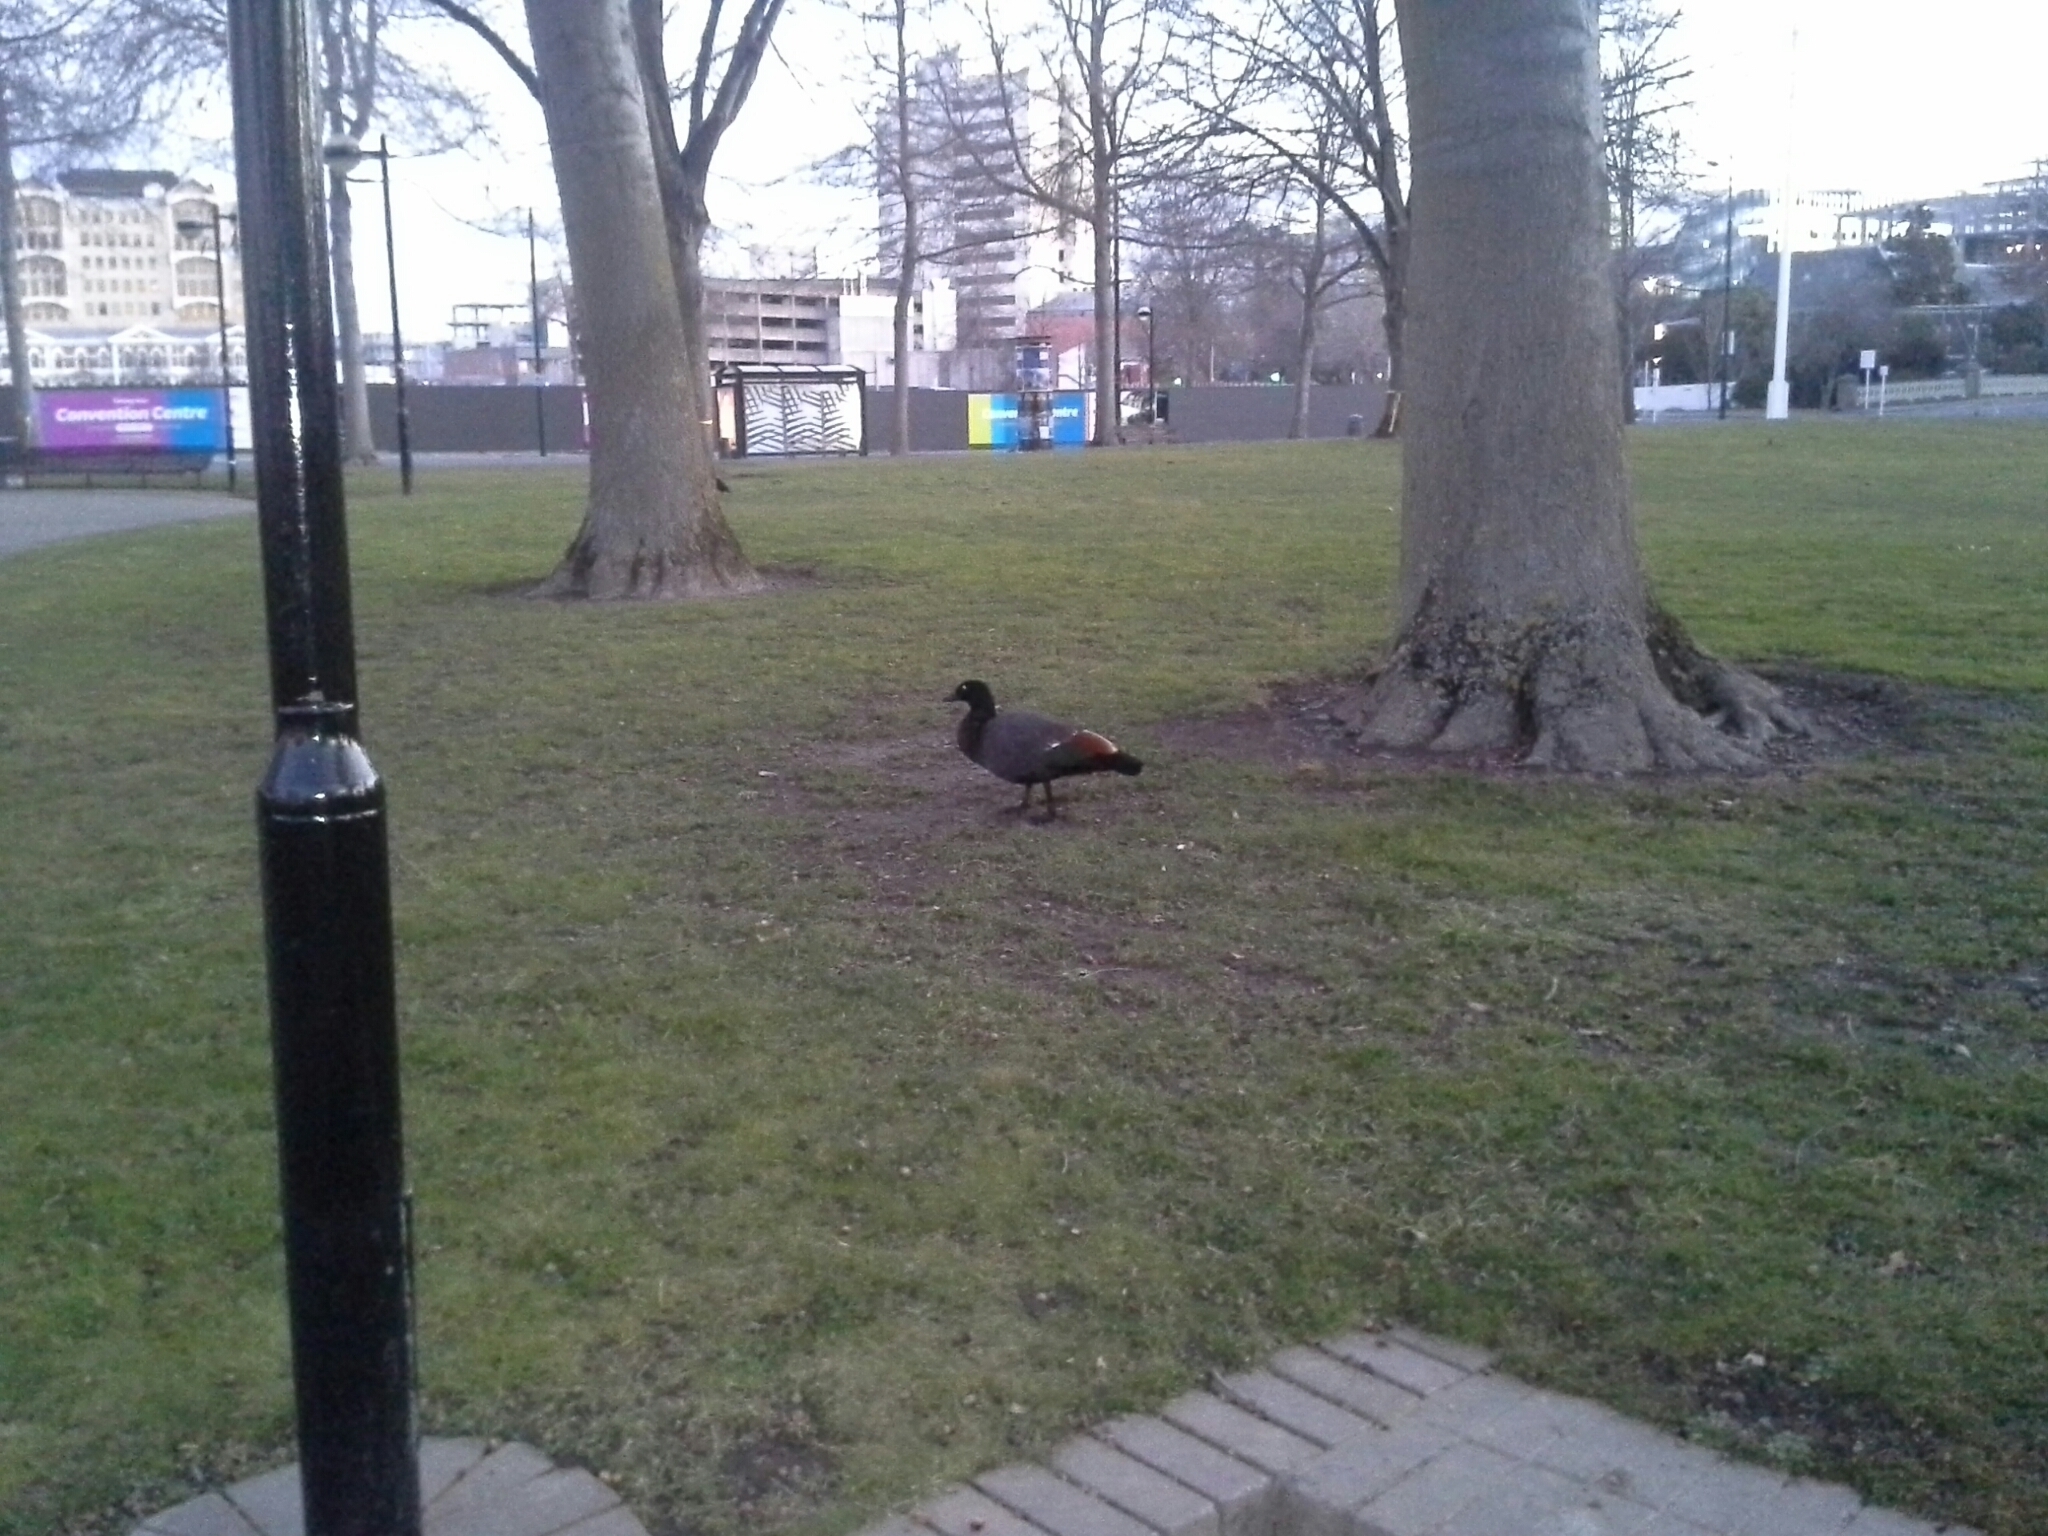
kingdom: Animalia
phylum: Chordata
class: Aves
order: Anseriformes
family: Anatidae
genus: Tadorna
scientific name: Tadorna variegata
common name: Paradise shelduck
